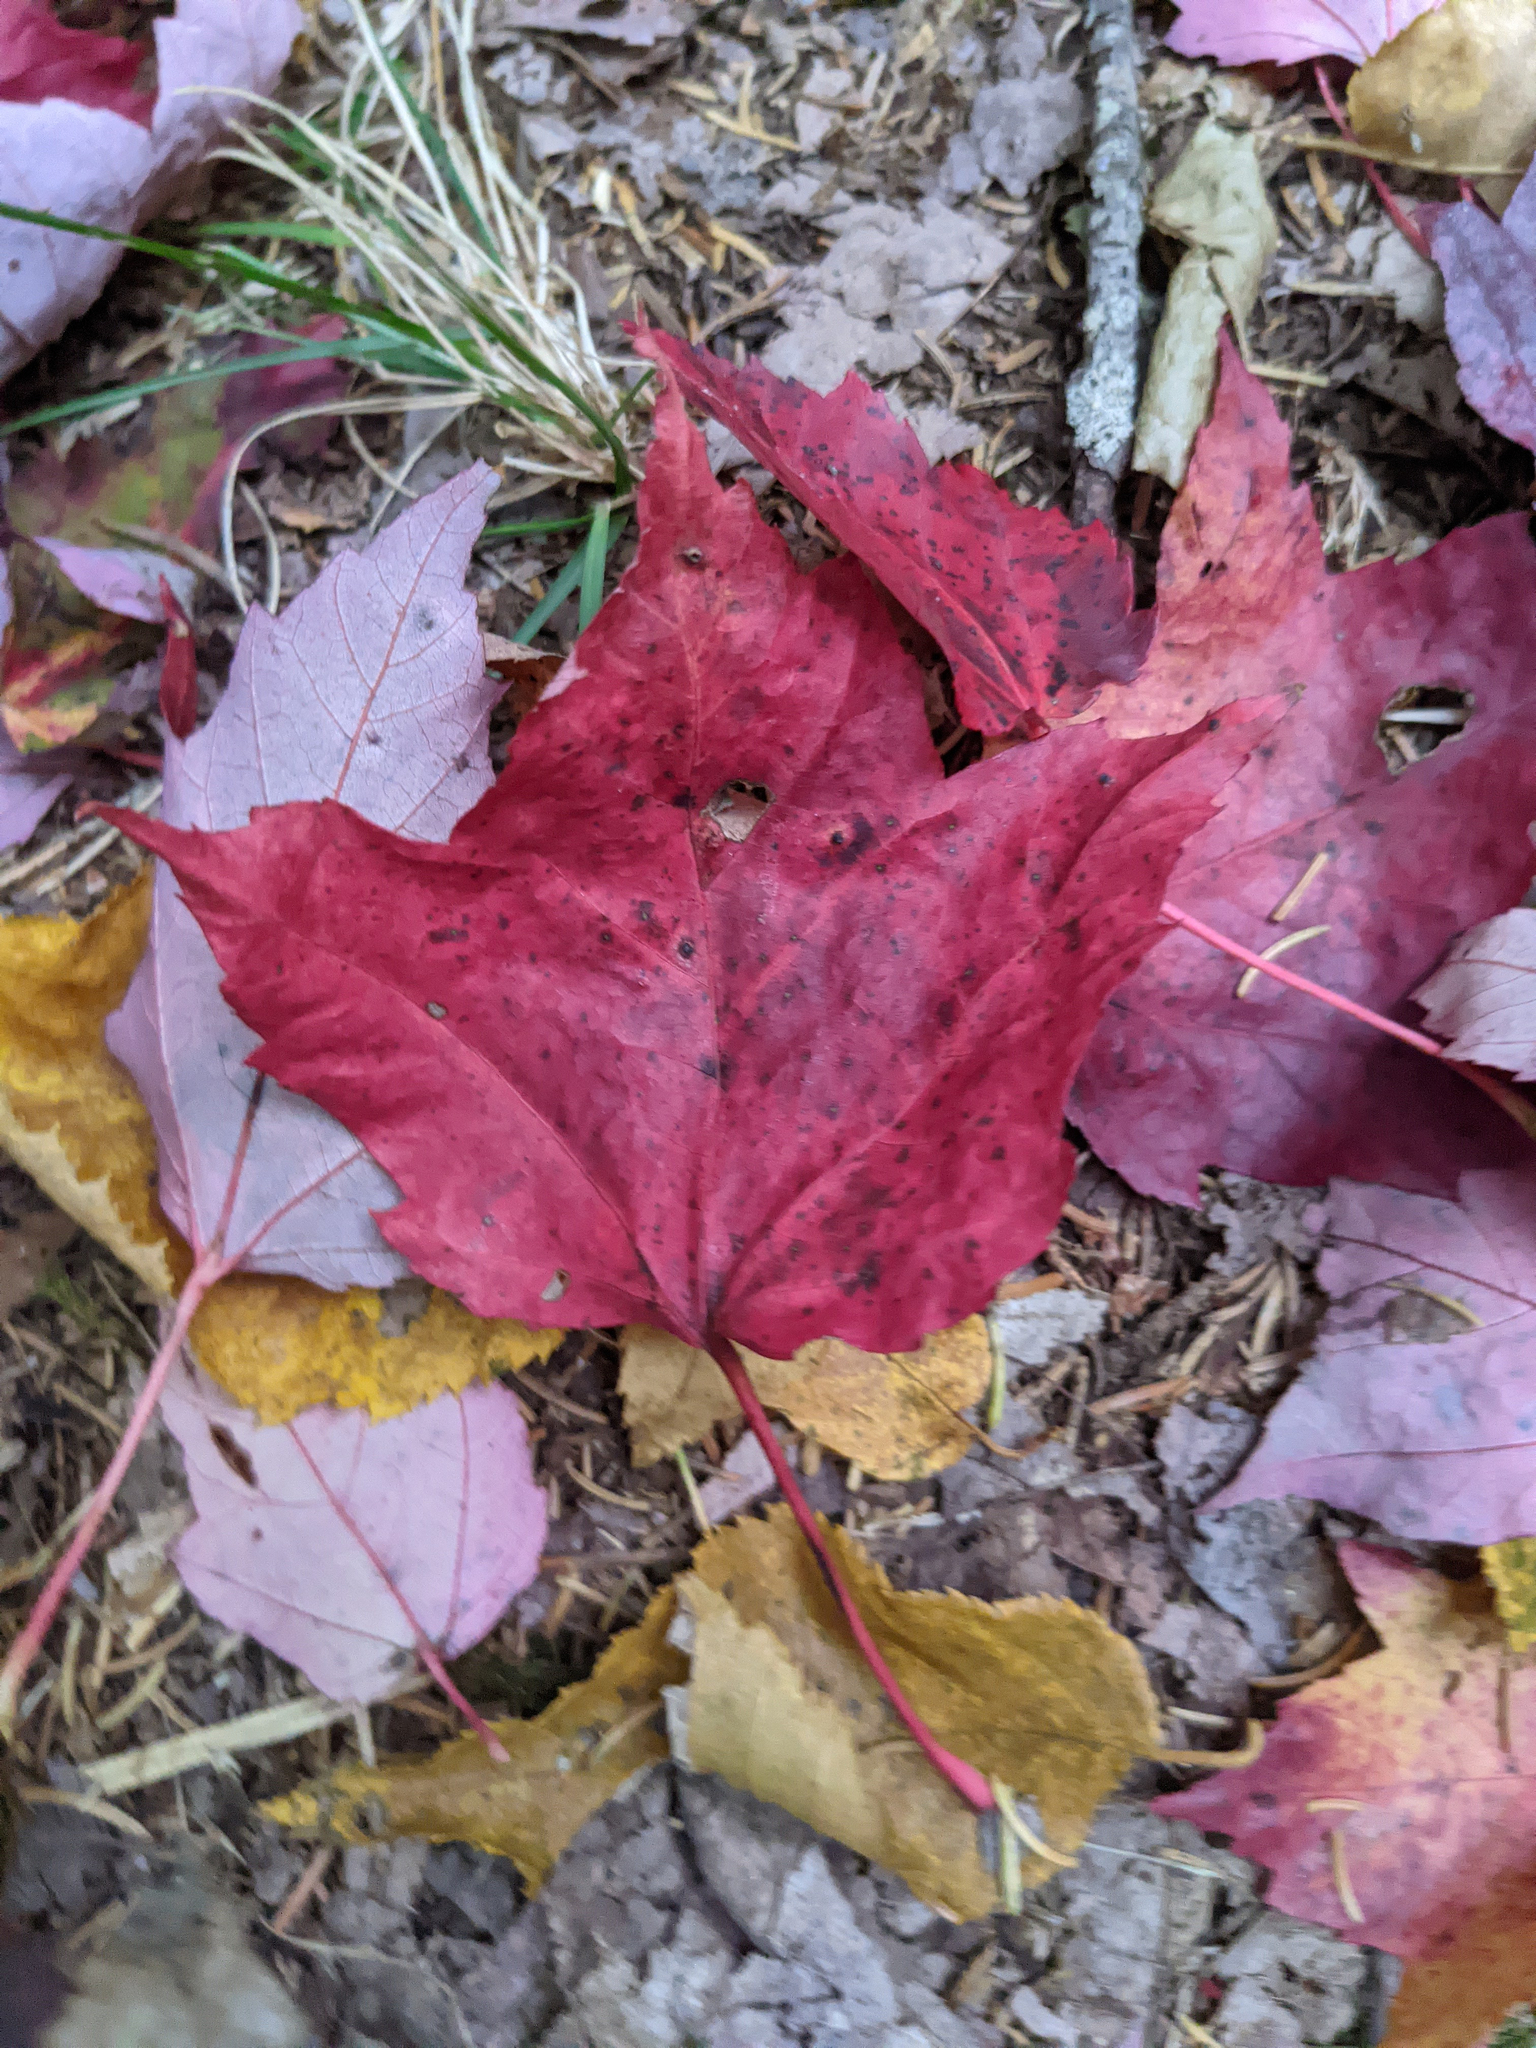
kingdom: Plantae
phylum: Tracheophyta
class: Magnoliopsida
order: Sapindales
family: Sapindaceae
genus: Acer
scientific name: Acer rubrum
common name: Red maple
